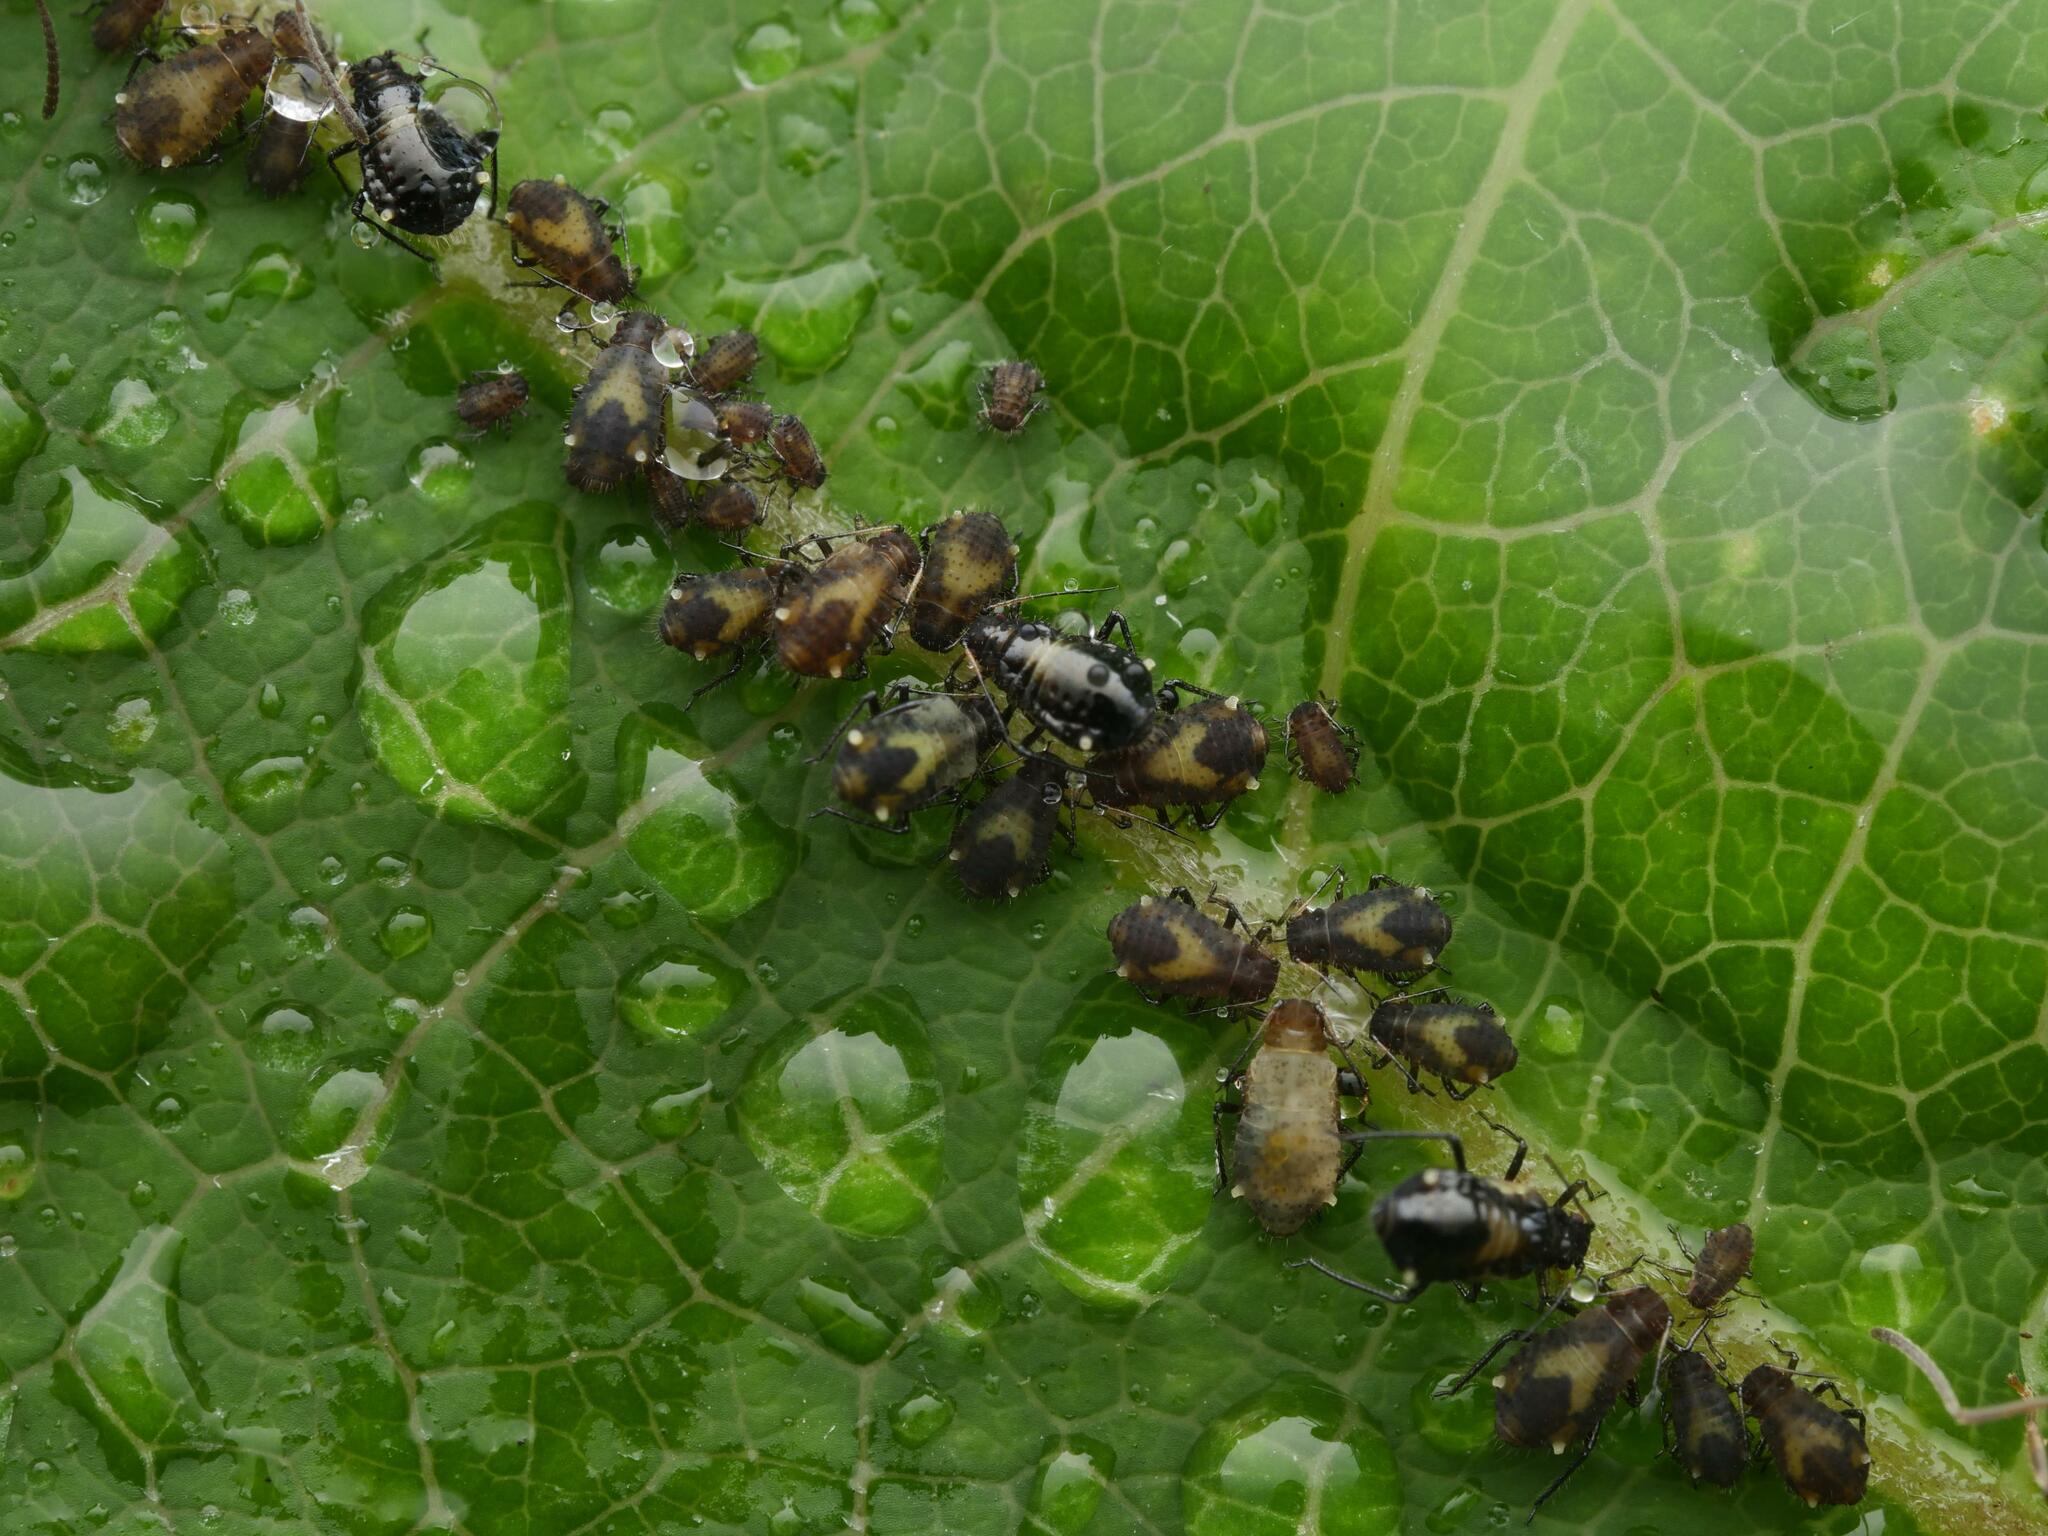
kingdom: Animalia
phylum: Arthropoda
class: Insecta
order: Hemiptera
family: Aphididae
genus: Chaitophorus
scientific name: Chaitophorus populicola
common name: Smokywinged poplar aphid
